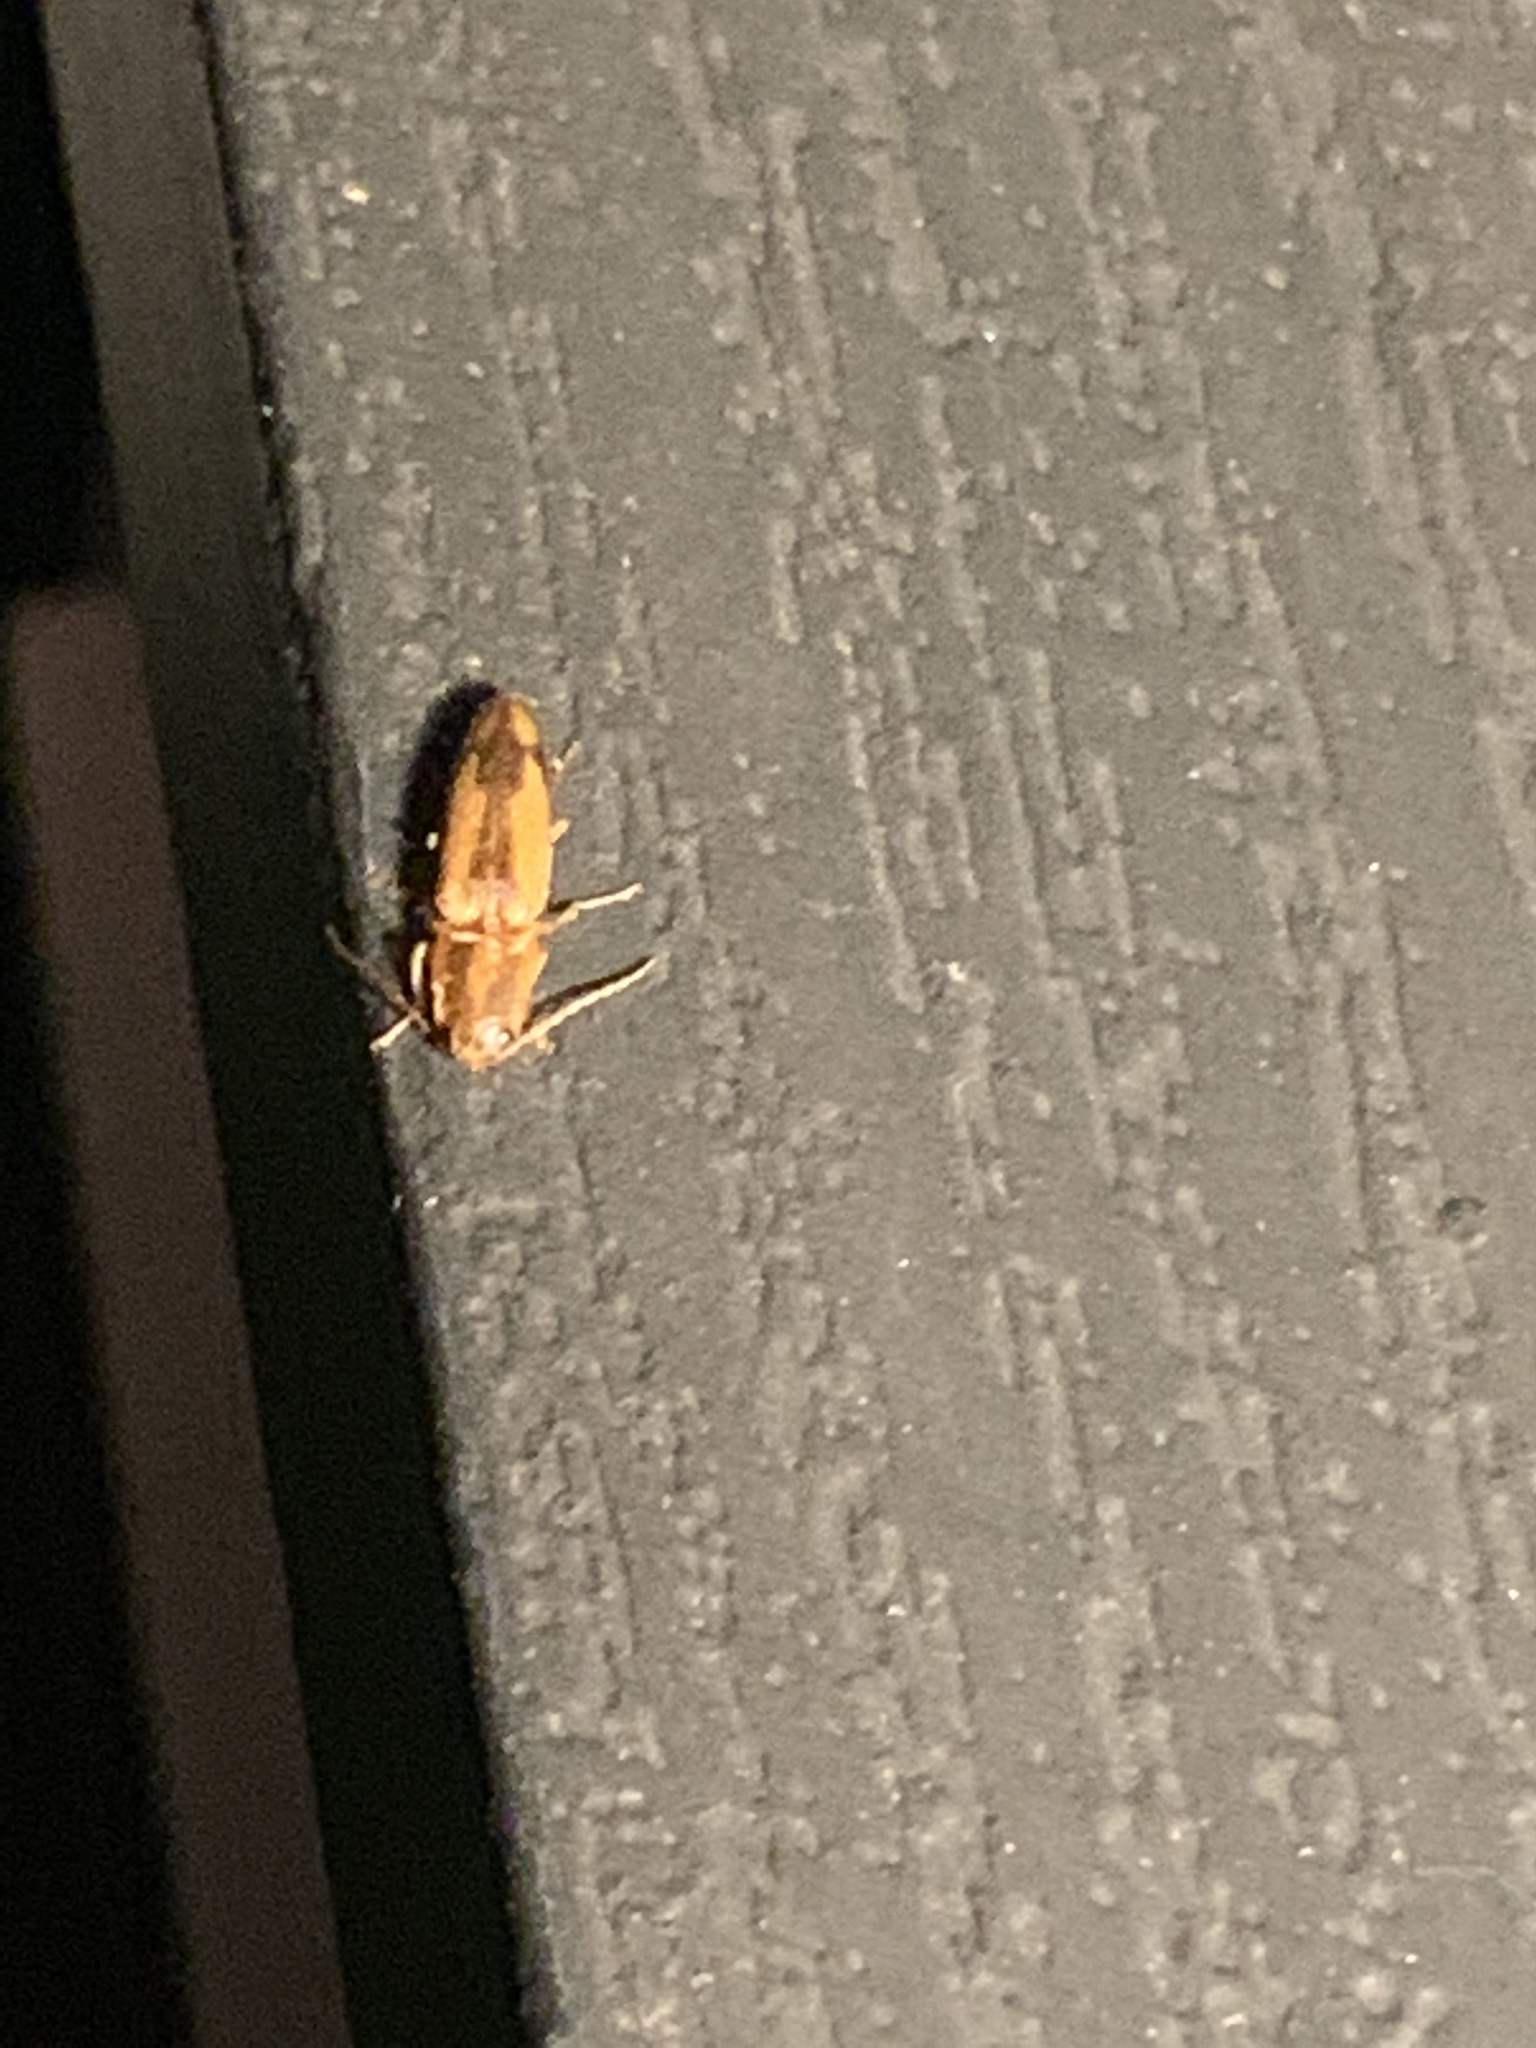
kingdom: Animalia
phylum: Arthropoda
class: Insecta
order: Coleoptera
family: Elateridae
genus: Monocrepidius
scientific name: Monocrepidius
